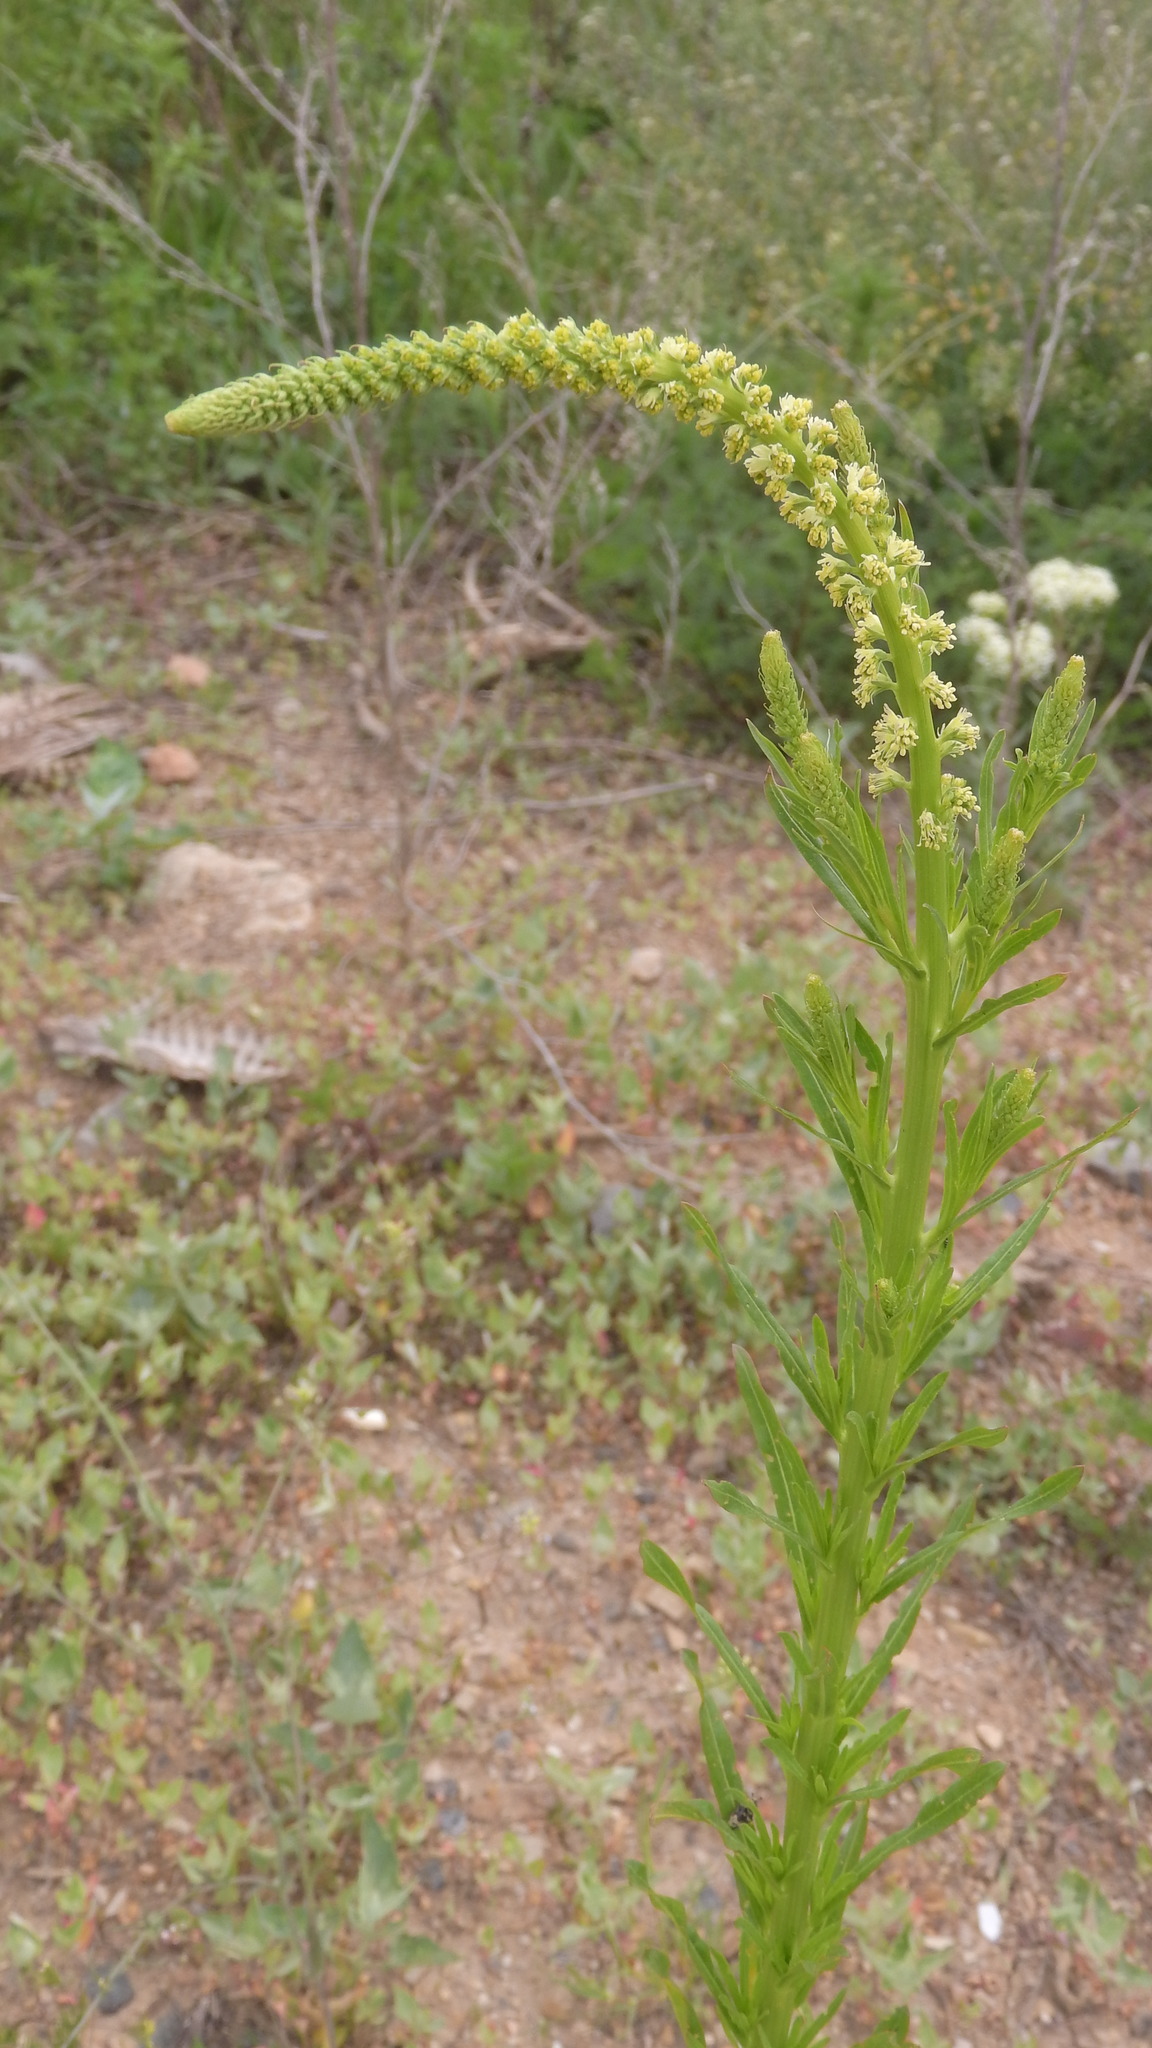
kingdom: Plantae
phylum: Tracheophyta
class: Magnoliopsida
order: Brassicales
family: Resedaceae
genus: Reseda
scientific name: Reseda luteola
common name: Weld
